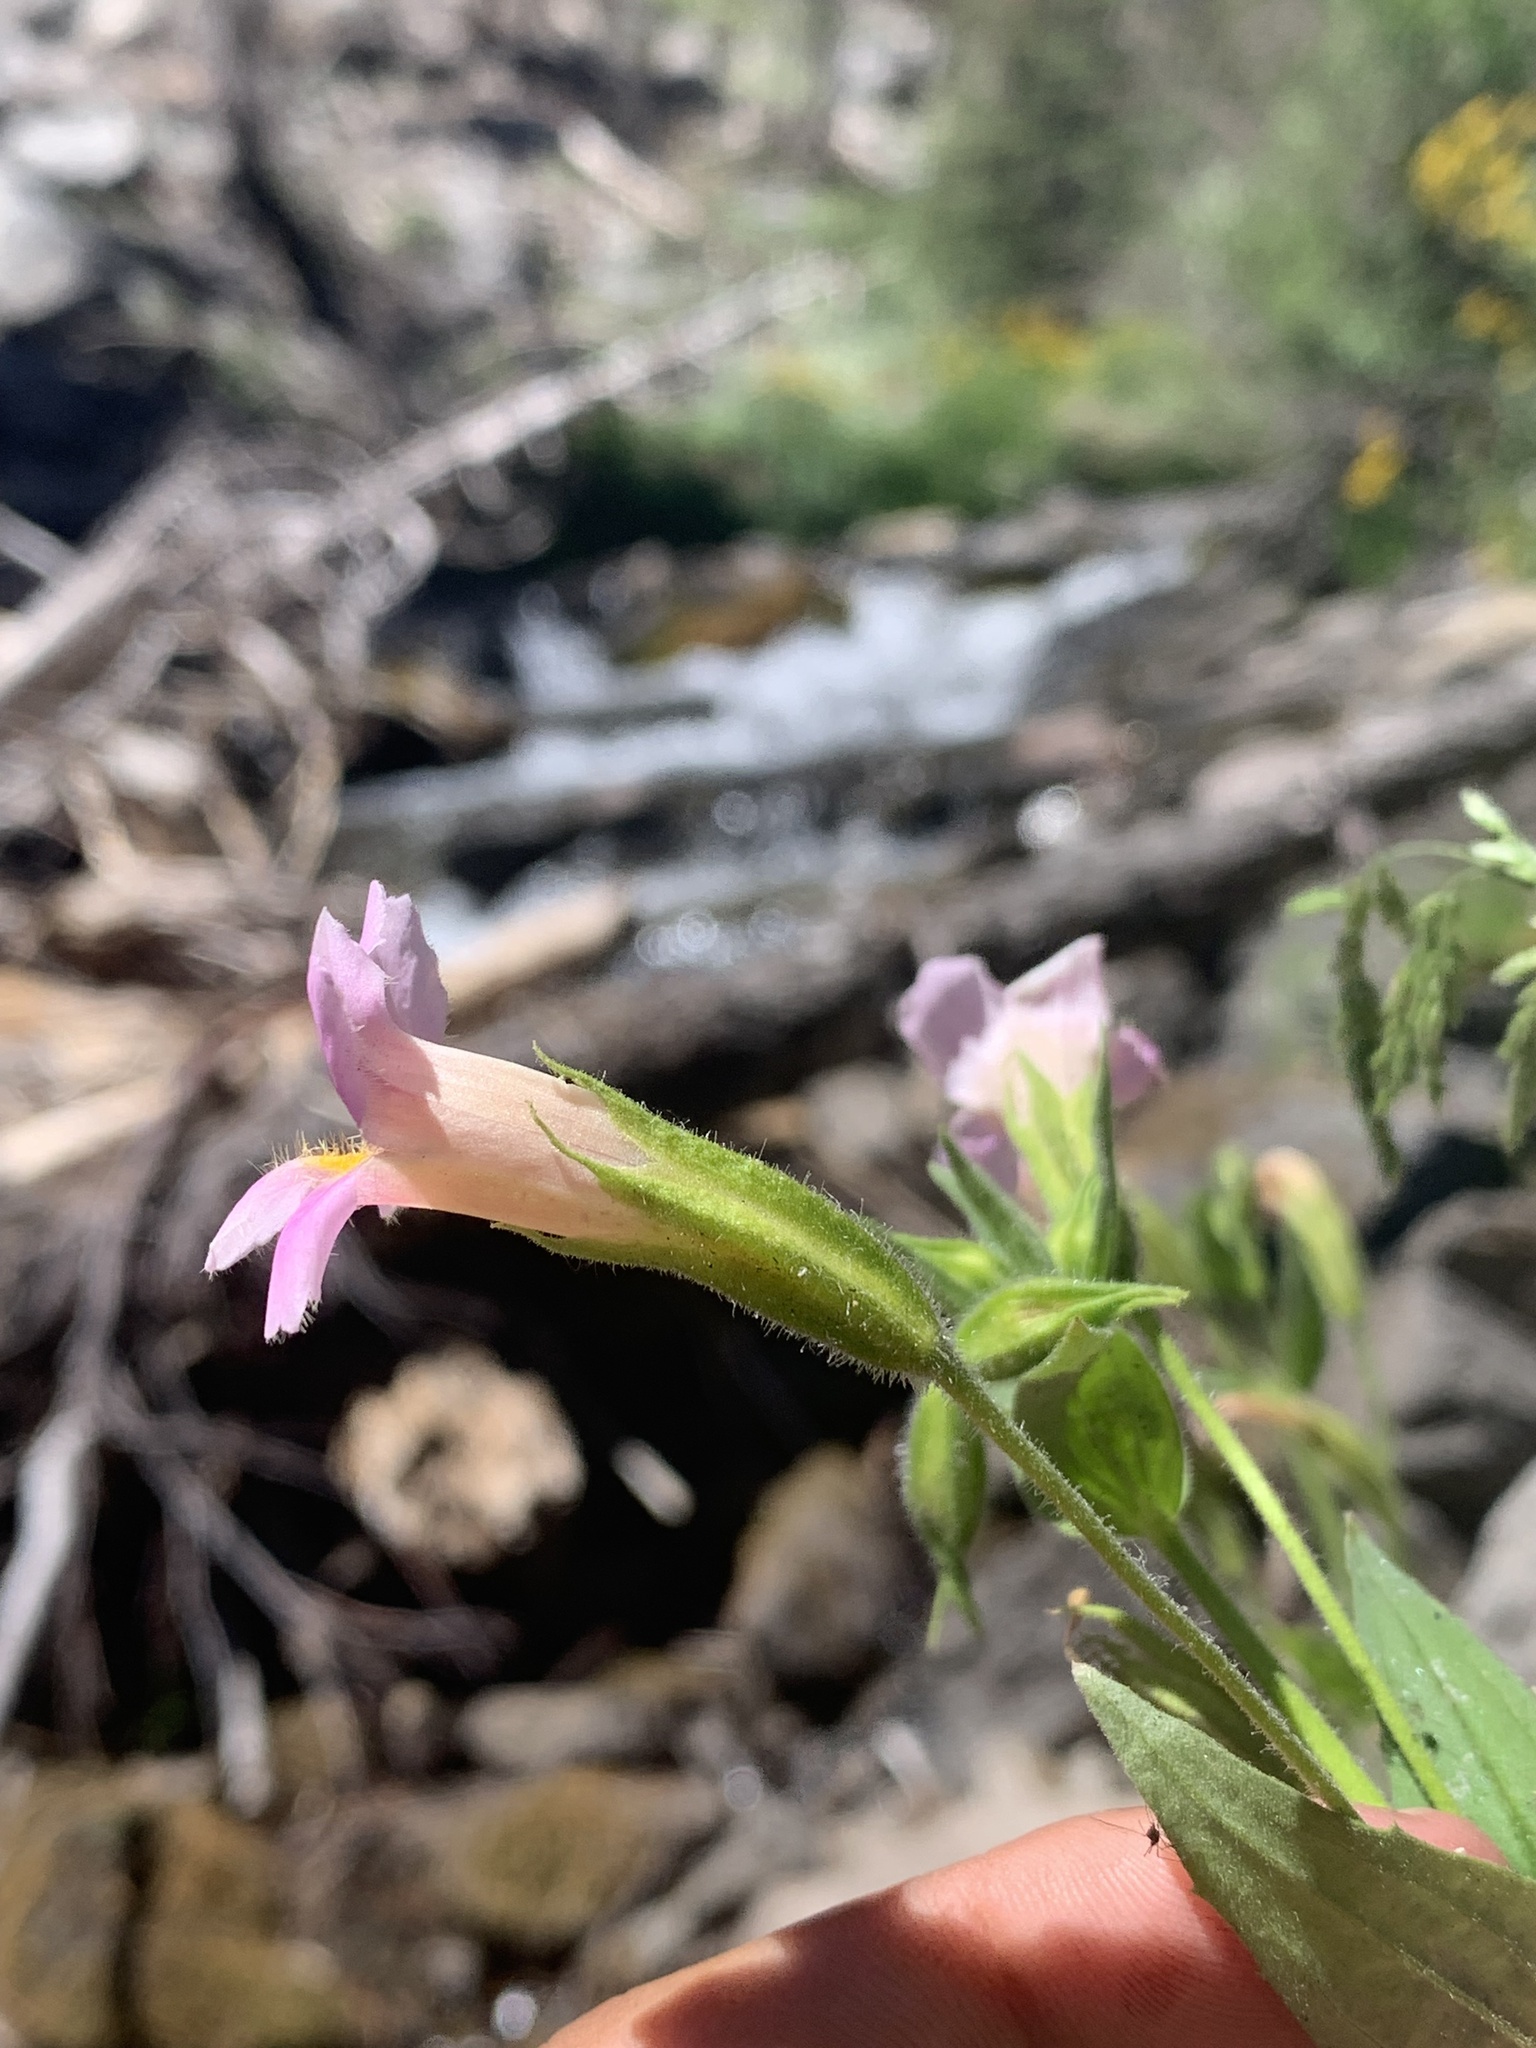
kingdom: Plantae
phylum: Tracheophyta
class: Magnoliopsida
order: Lamiales
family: Phrymaceae
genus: Erythranthe
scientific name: Erythranthe erubescens
